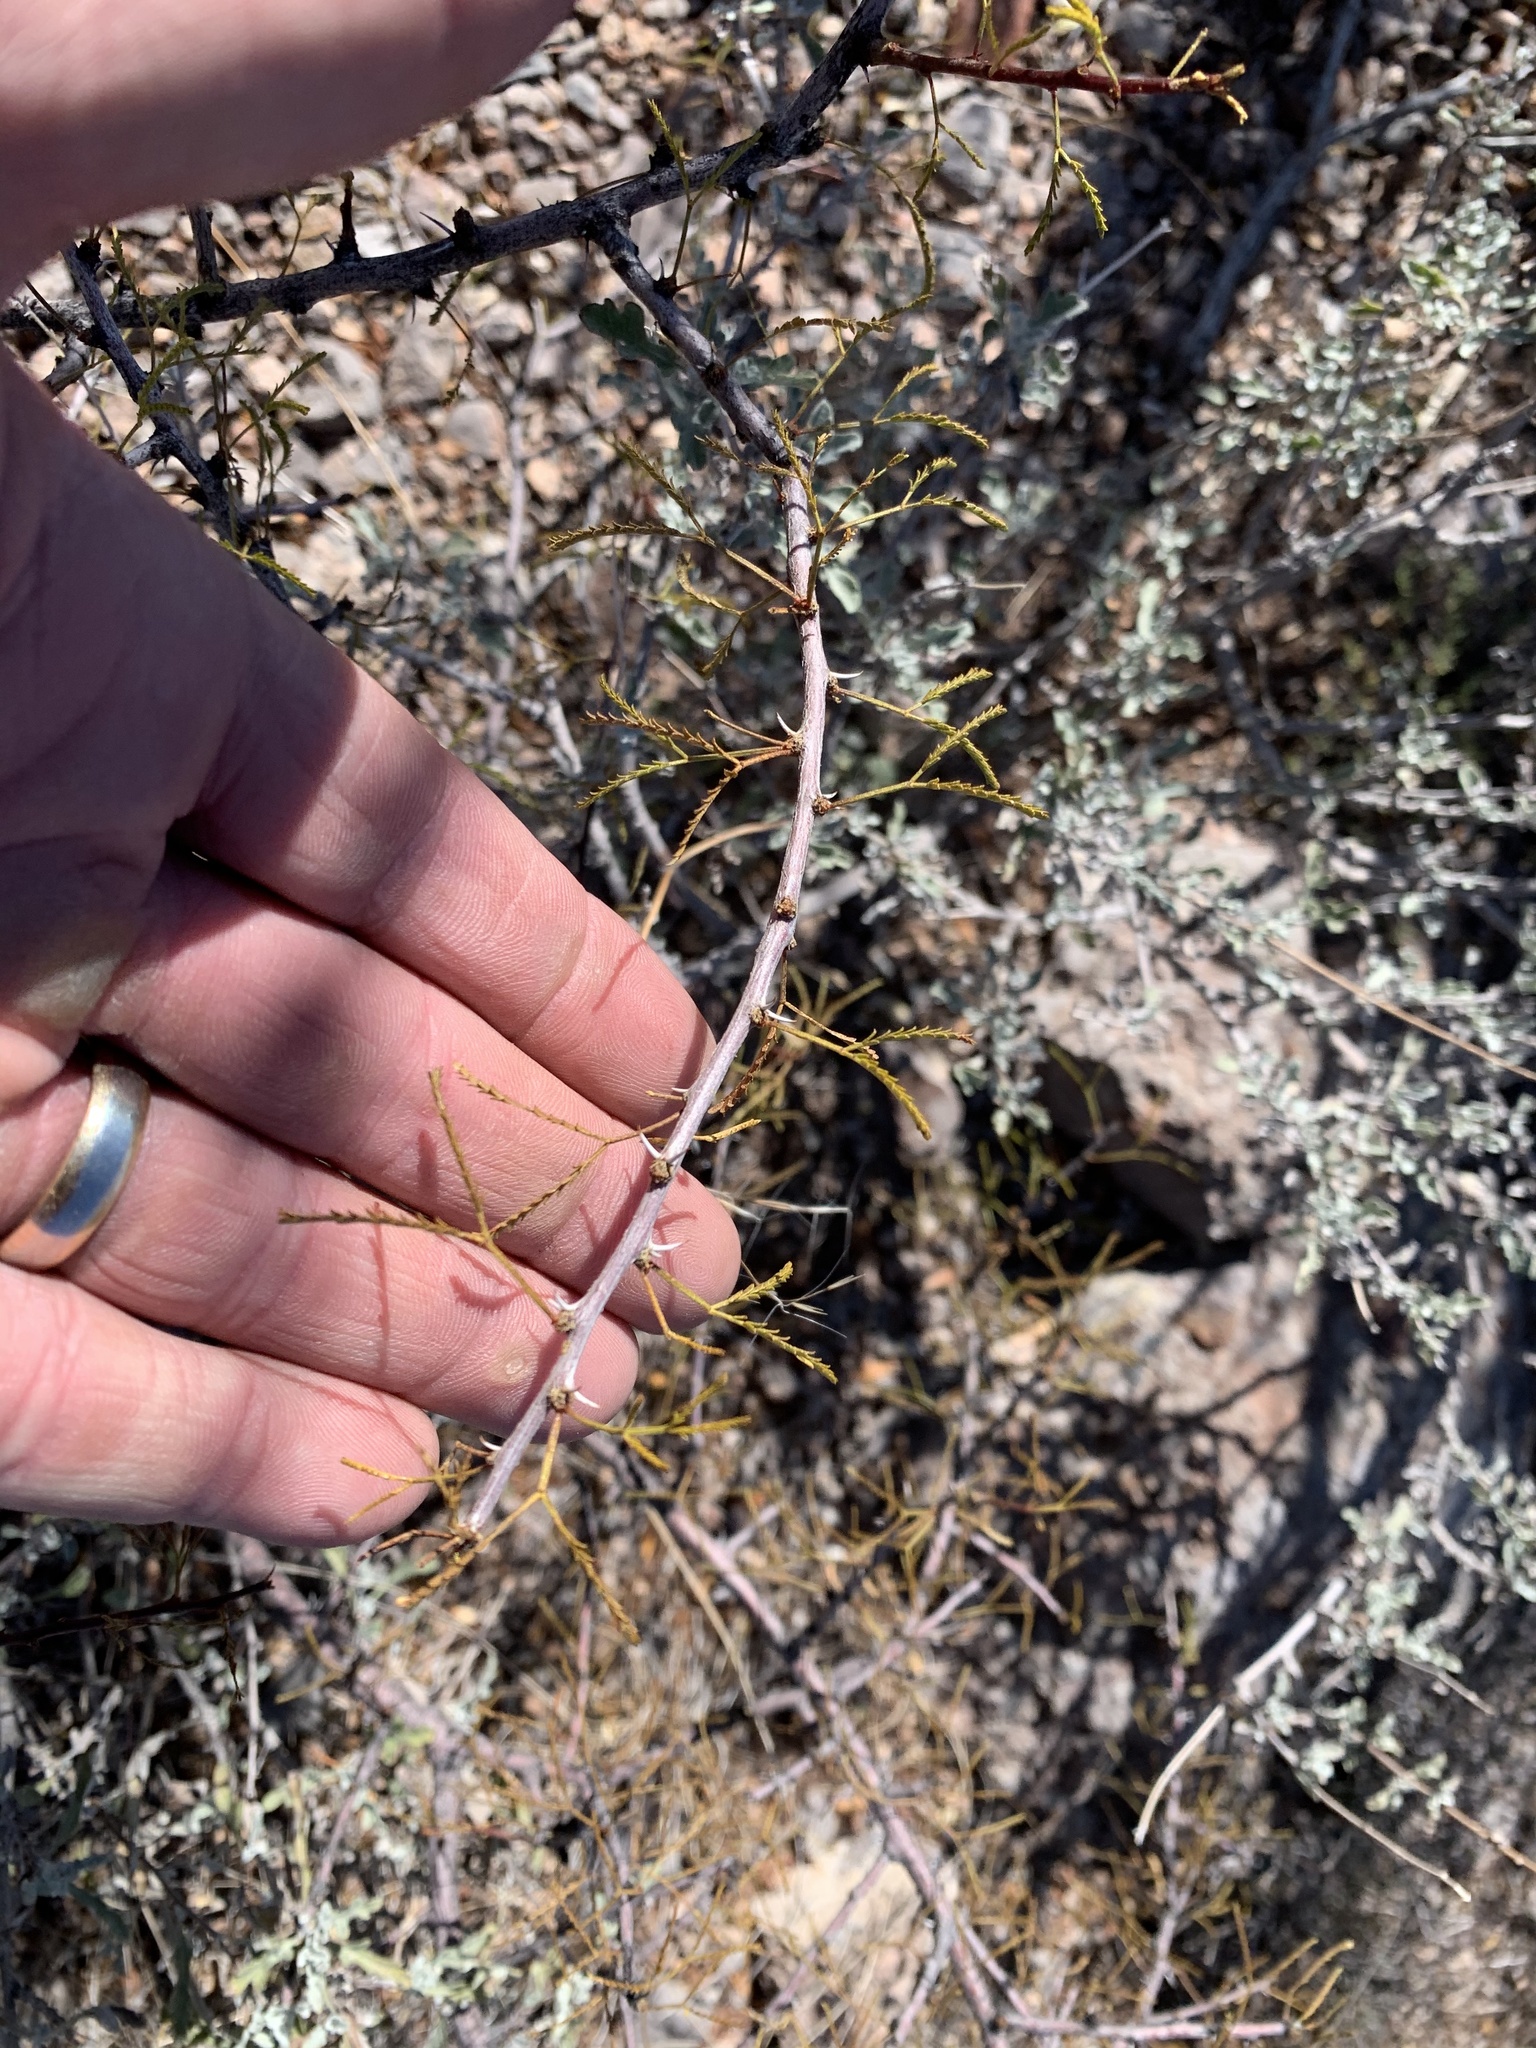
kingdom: Plantae
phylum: Tracheophyta
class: Magnoliopsida
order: Fabales
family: Fabaceae
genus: Vachellia
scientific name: Vachellia constricta
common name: Mescat acacia
